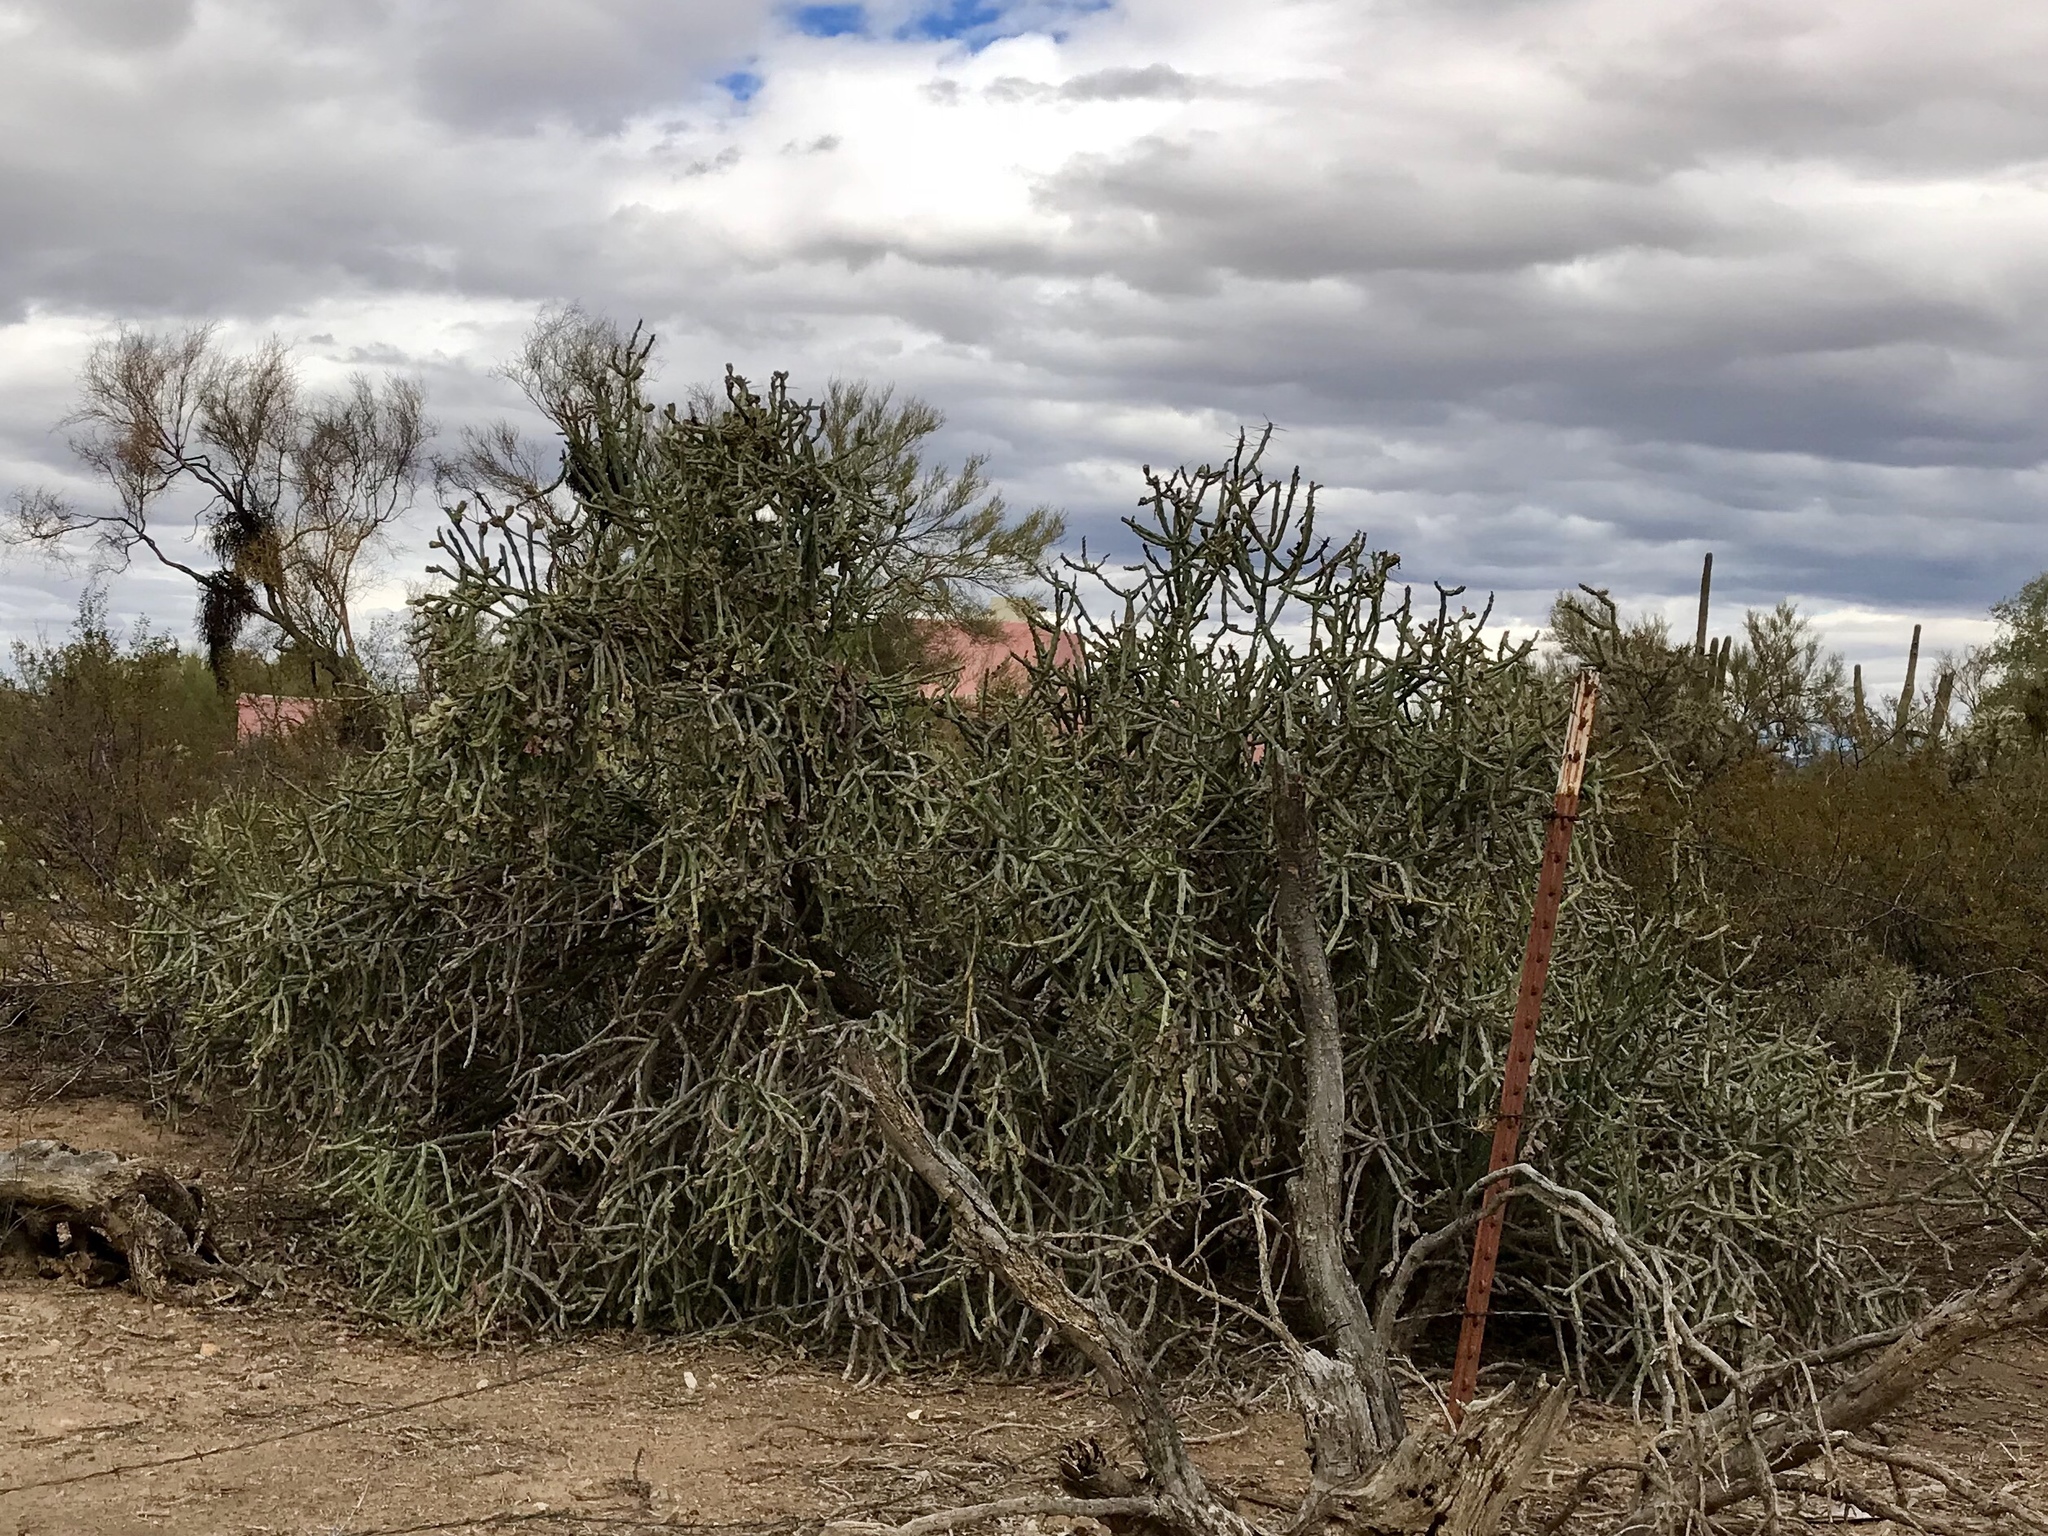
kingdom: Plantae
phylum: Tracheophyta
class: Magnoliopsida
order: Caryophyllales
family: Cactaceae
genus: Cylindropuntia
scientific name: Cylindropuntia arbuscula
